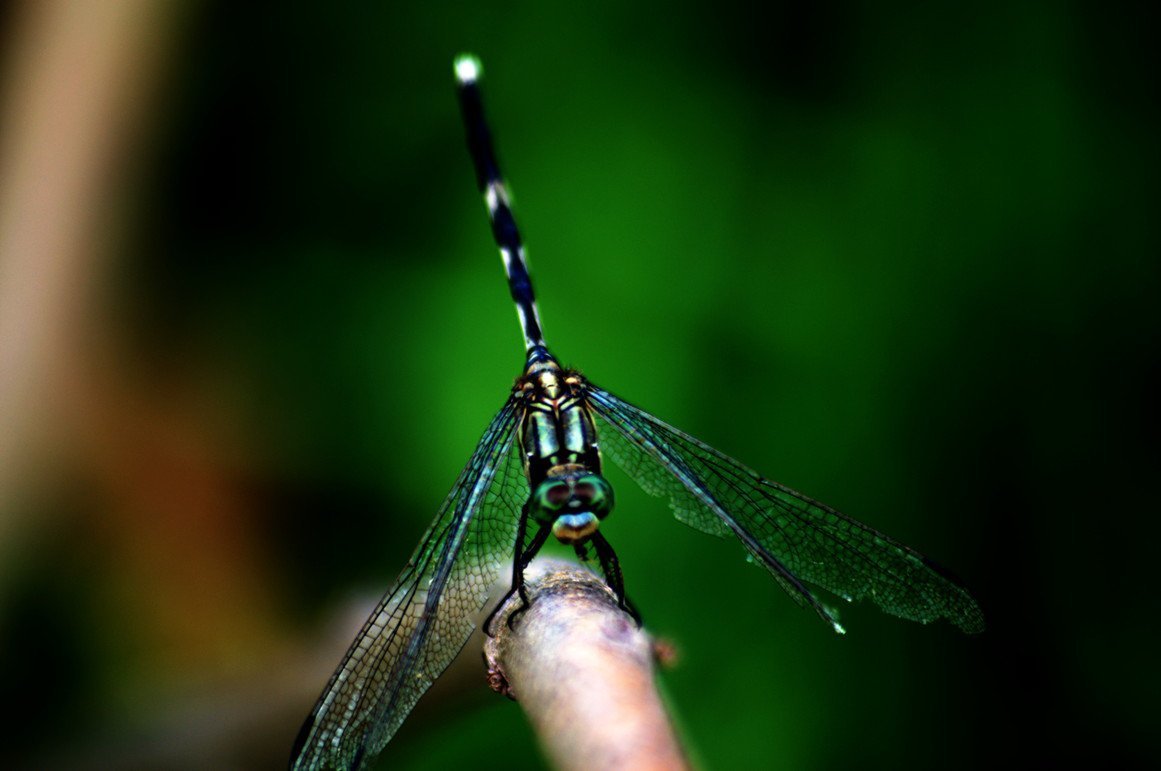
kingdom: Animalia
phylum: Arthropoda
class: Insecta
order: Odonata
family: Libellulidae
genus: Orthetrum
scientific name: Orthetrum sabina
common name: Slender skimmer
